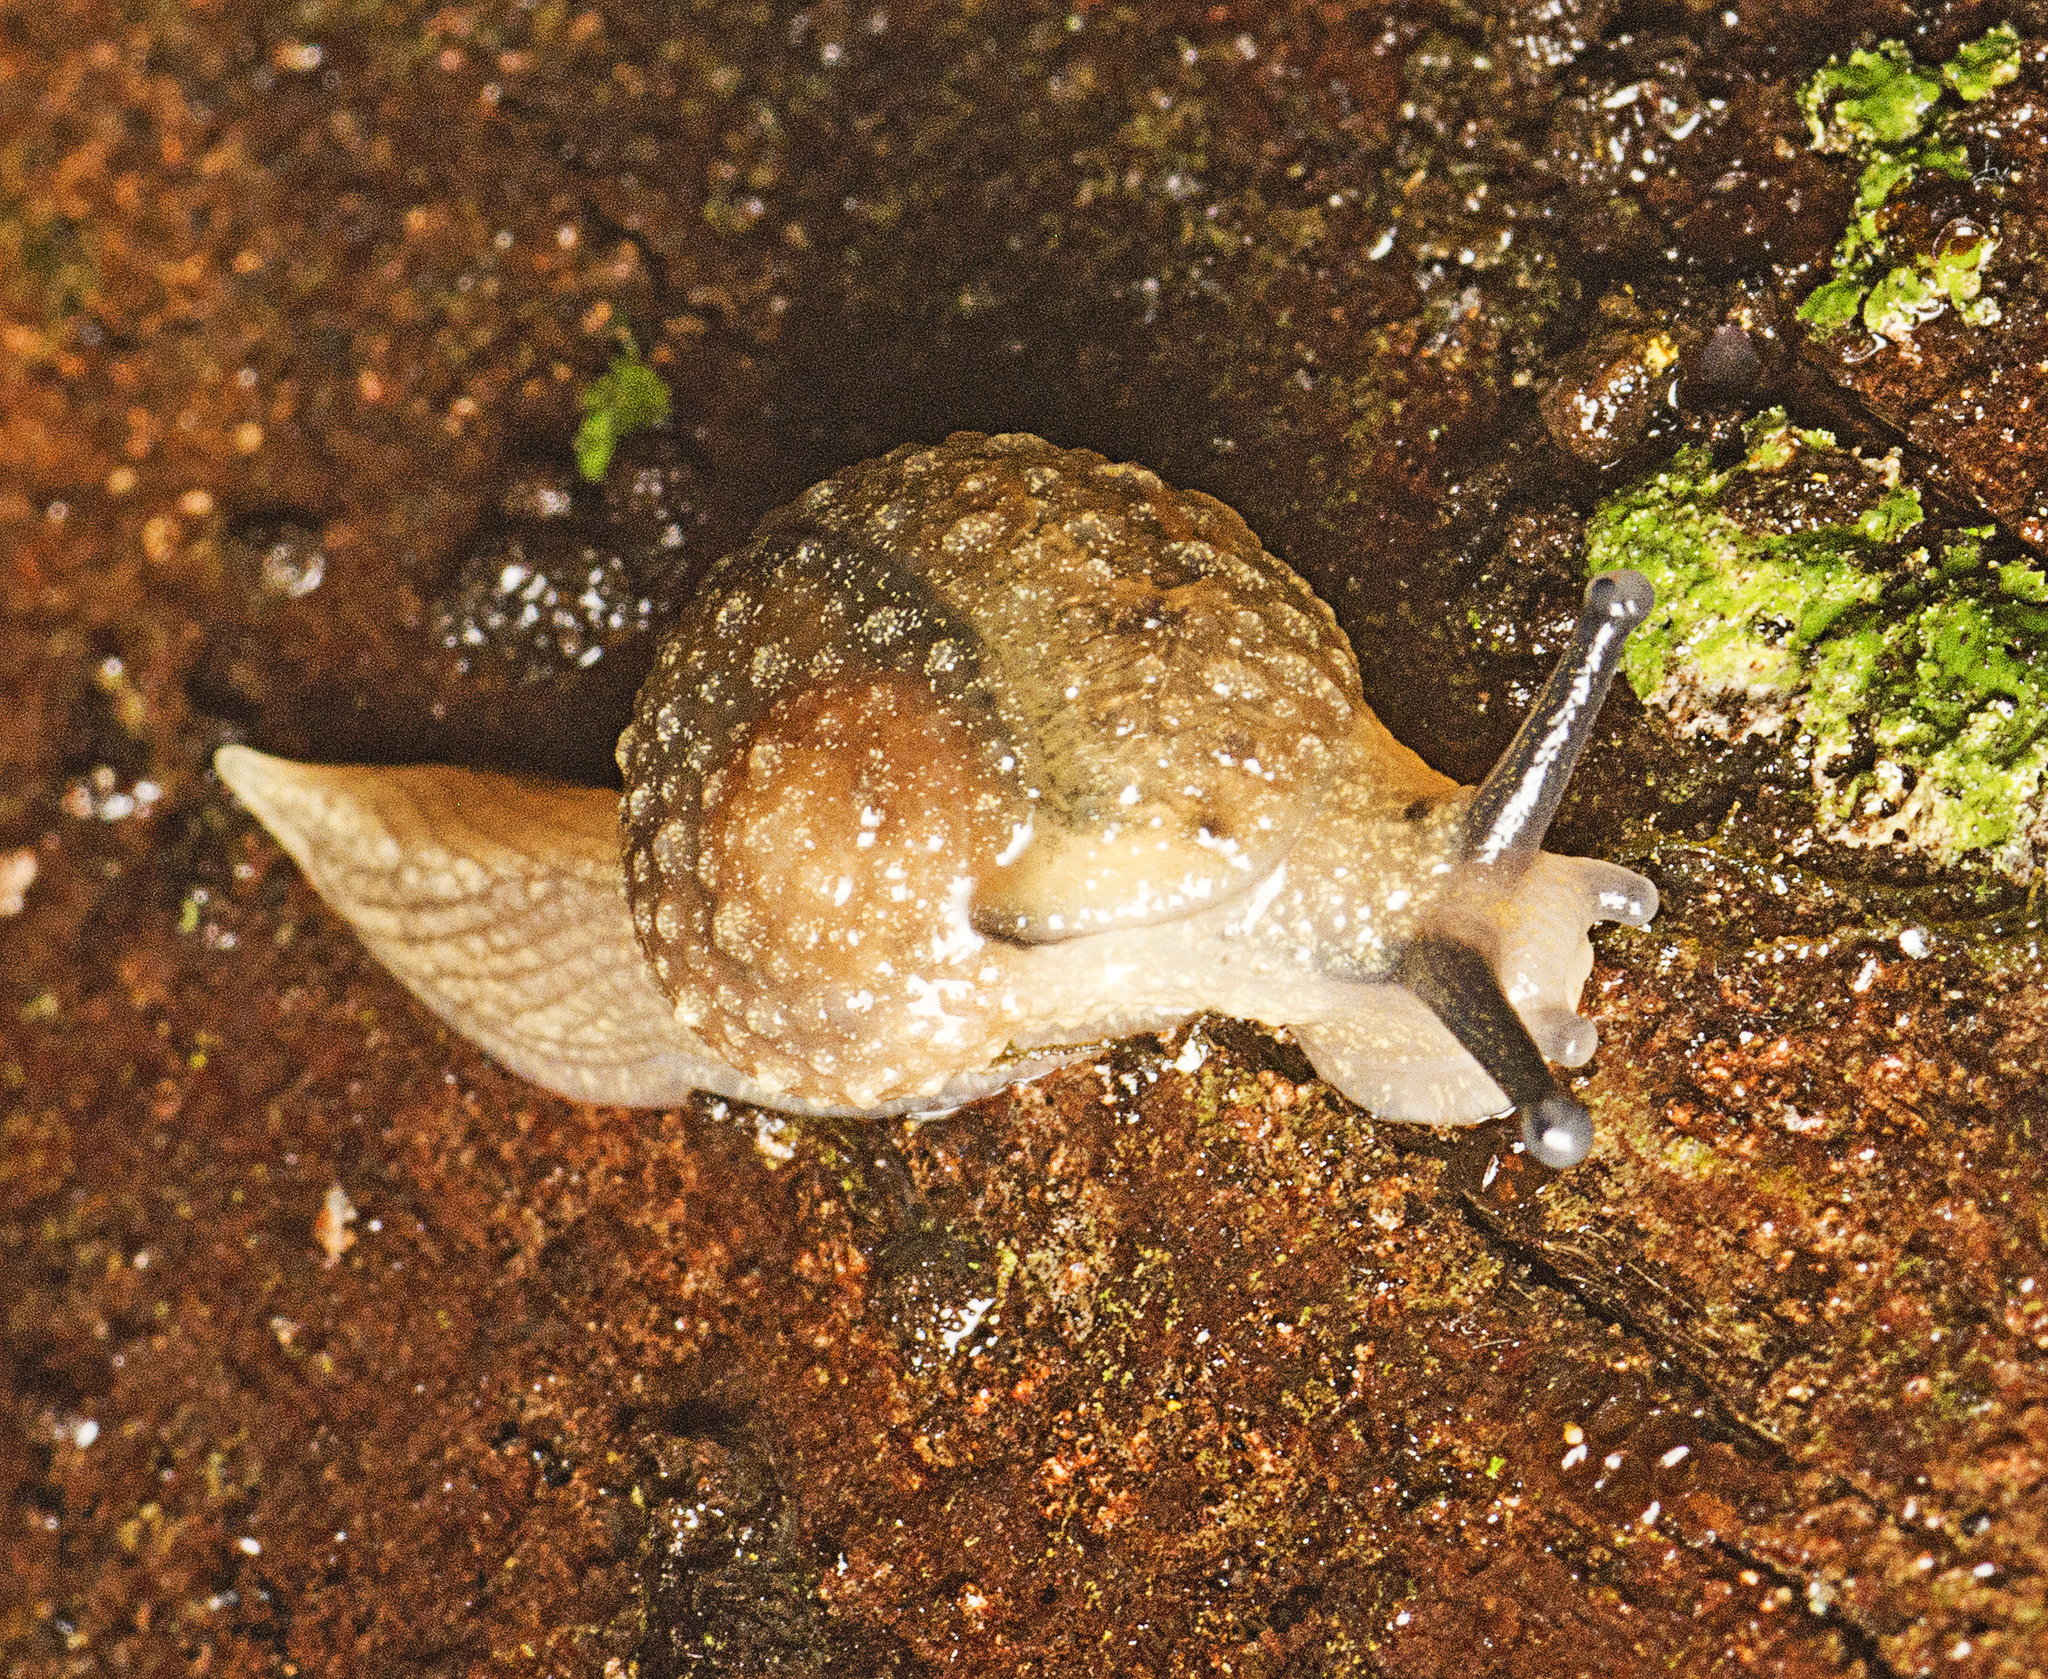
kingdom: Animalia
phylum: Mollusca
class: Gastropoda
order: Stylommatophora
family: Helicarionidae
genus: Stanisicarion
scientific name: Stanisicarion aquila
